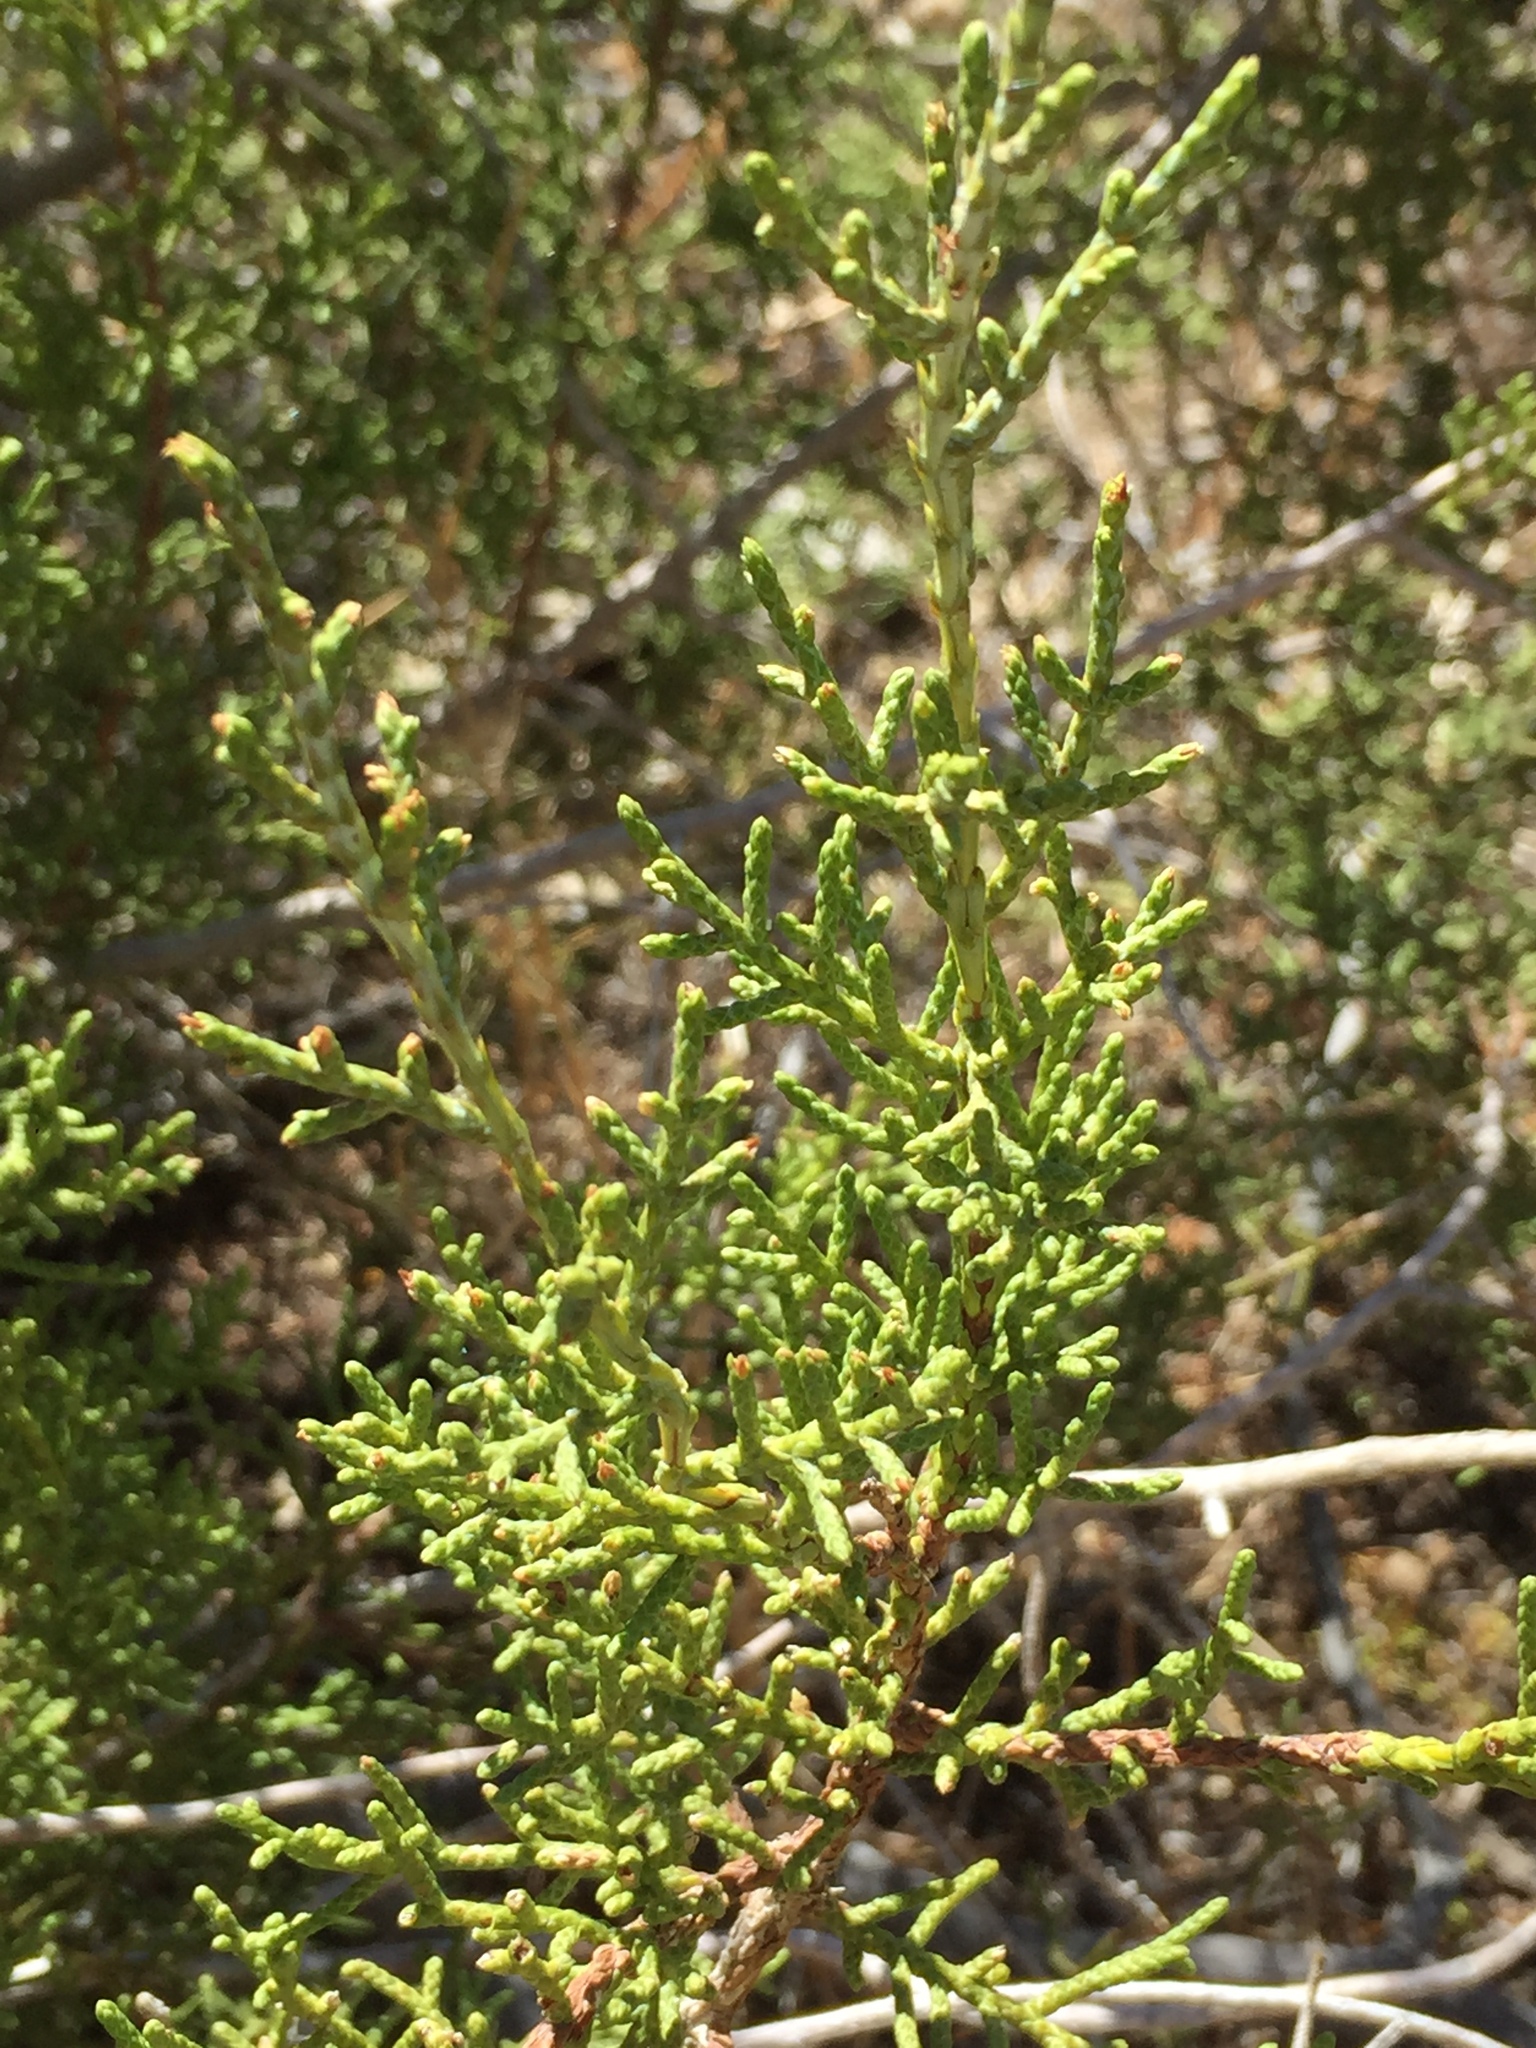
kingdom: Plantae
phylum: Tracheophyta
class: Pinopsida
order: Pinales
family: Cupressaceae
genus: Juniperus
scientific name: Juniperus californica
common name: California juniper
